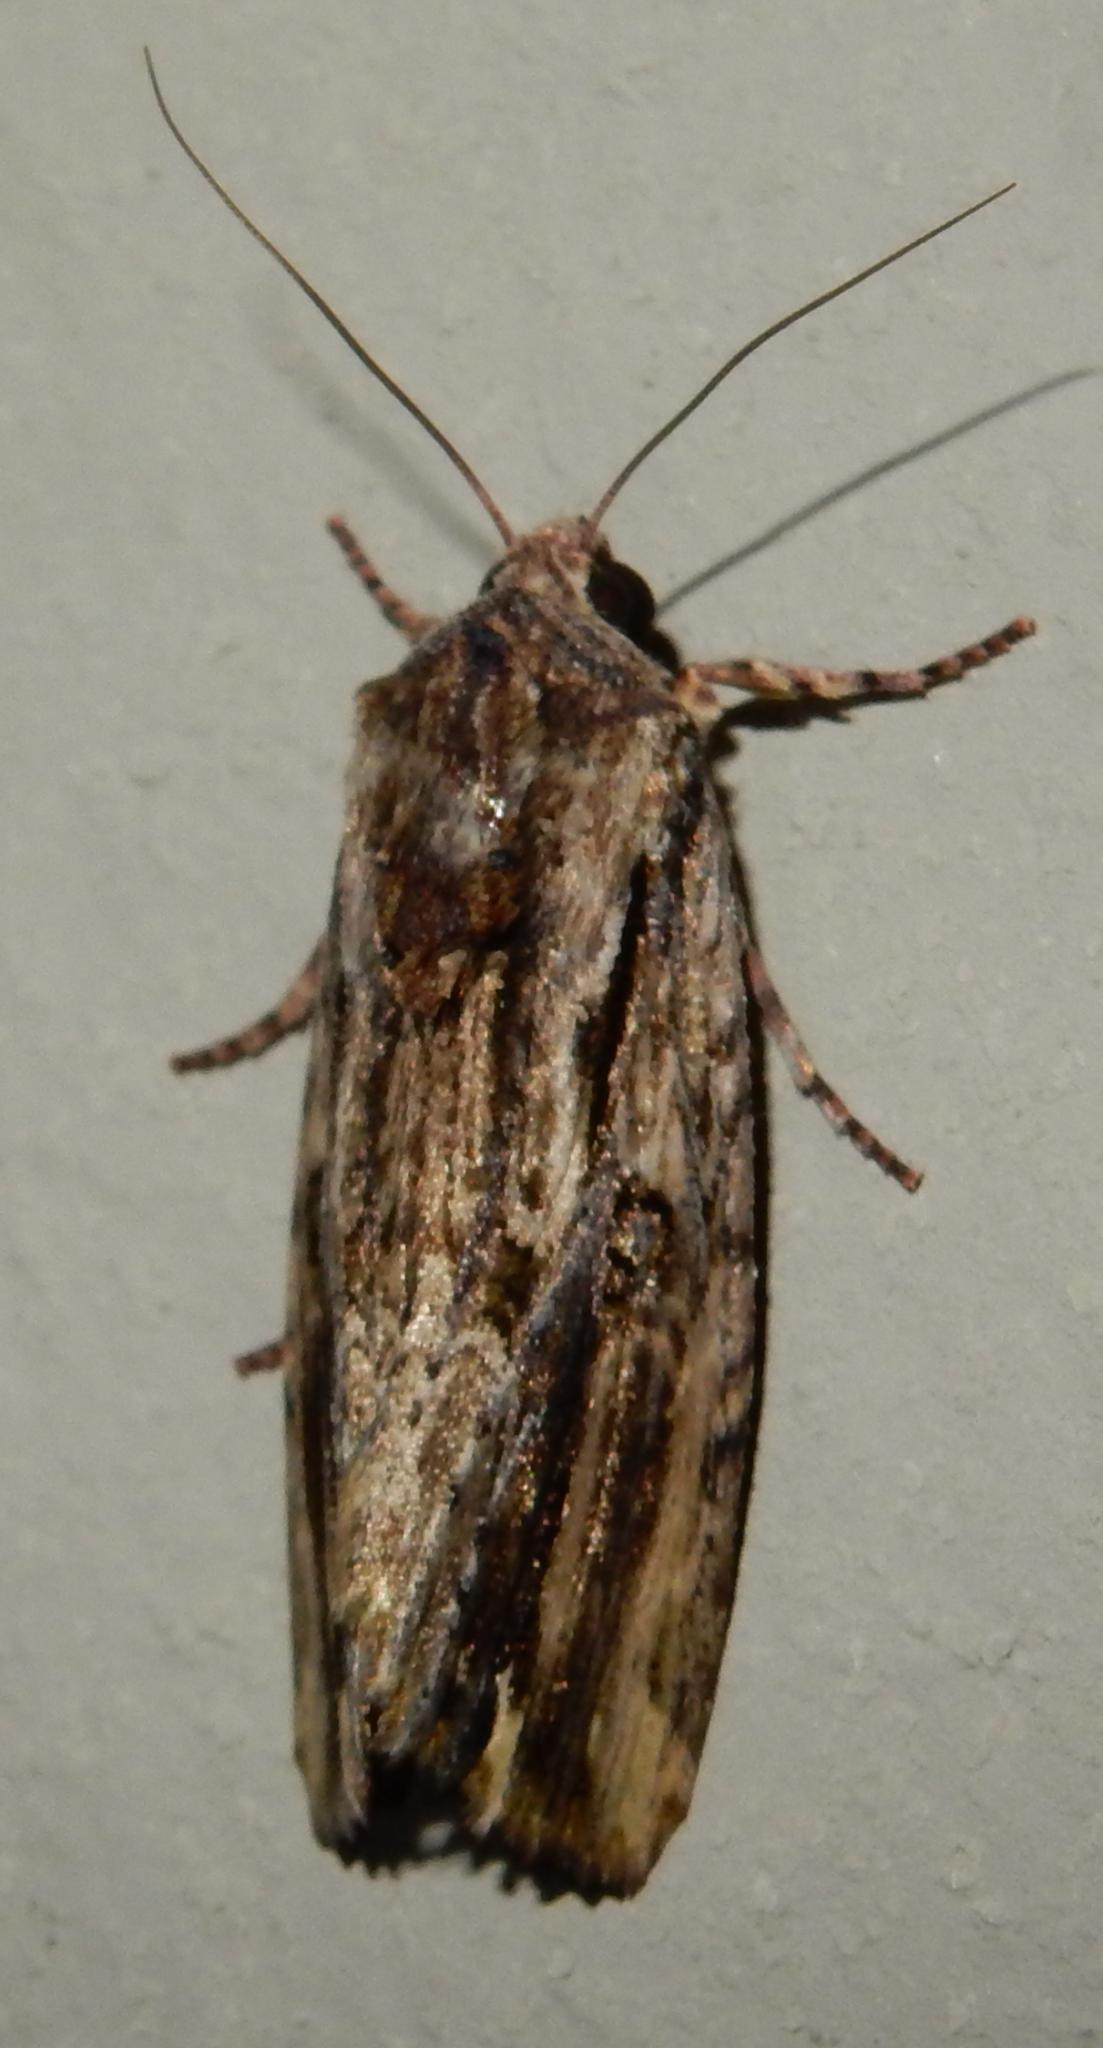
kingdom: Animalia
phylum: Arthropoda
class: Insecta
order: Lepidoptera
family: Noctuidae
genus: Magusa
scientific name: Magusa versicolora
